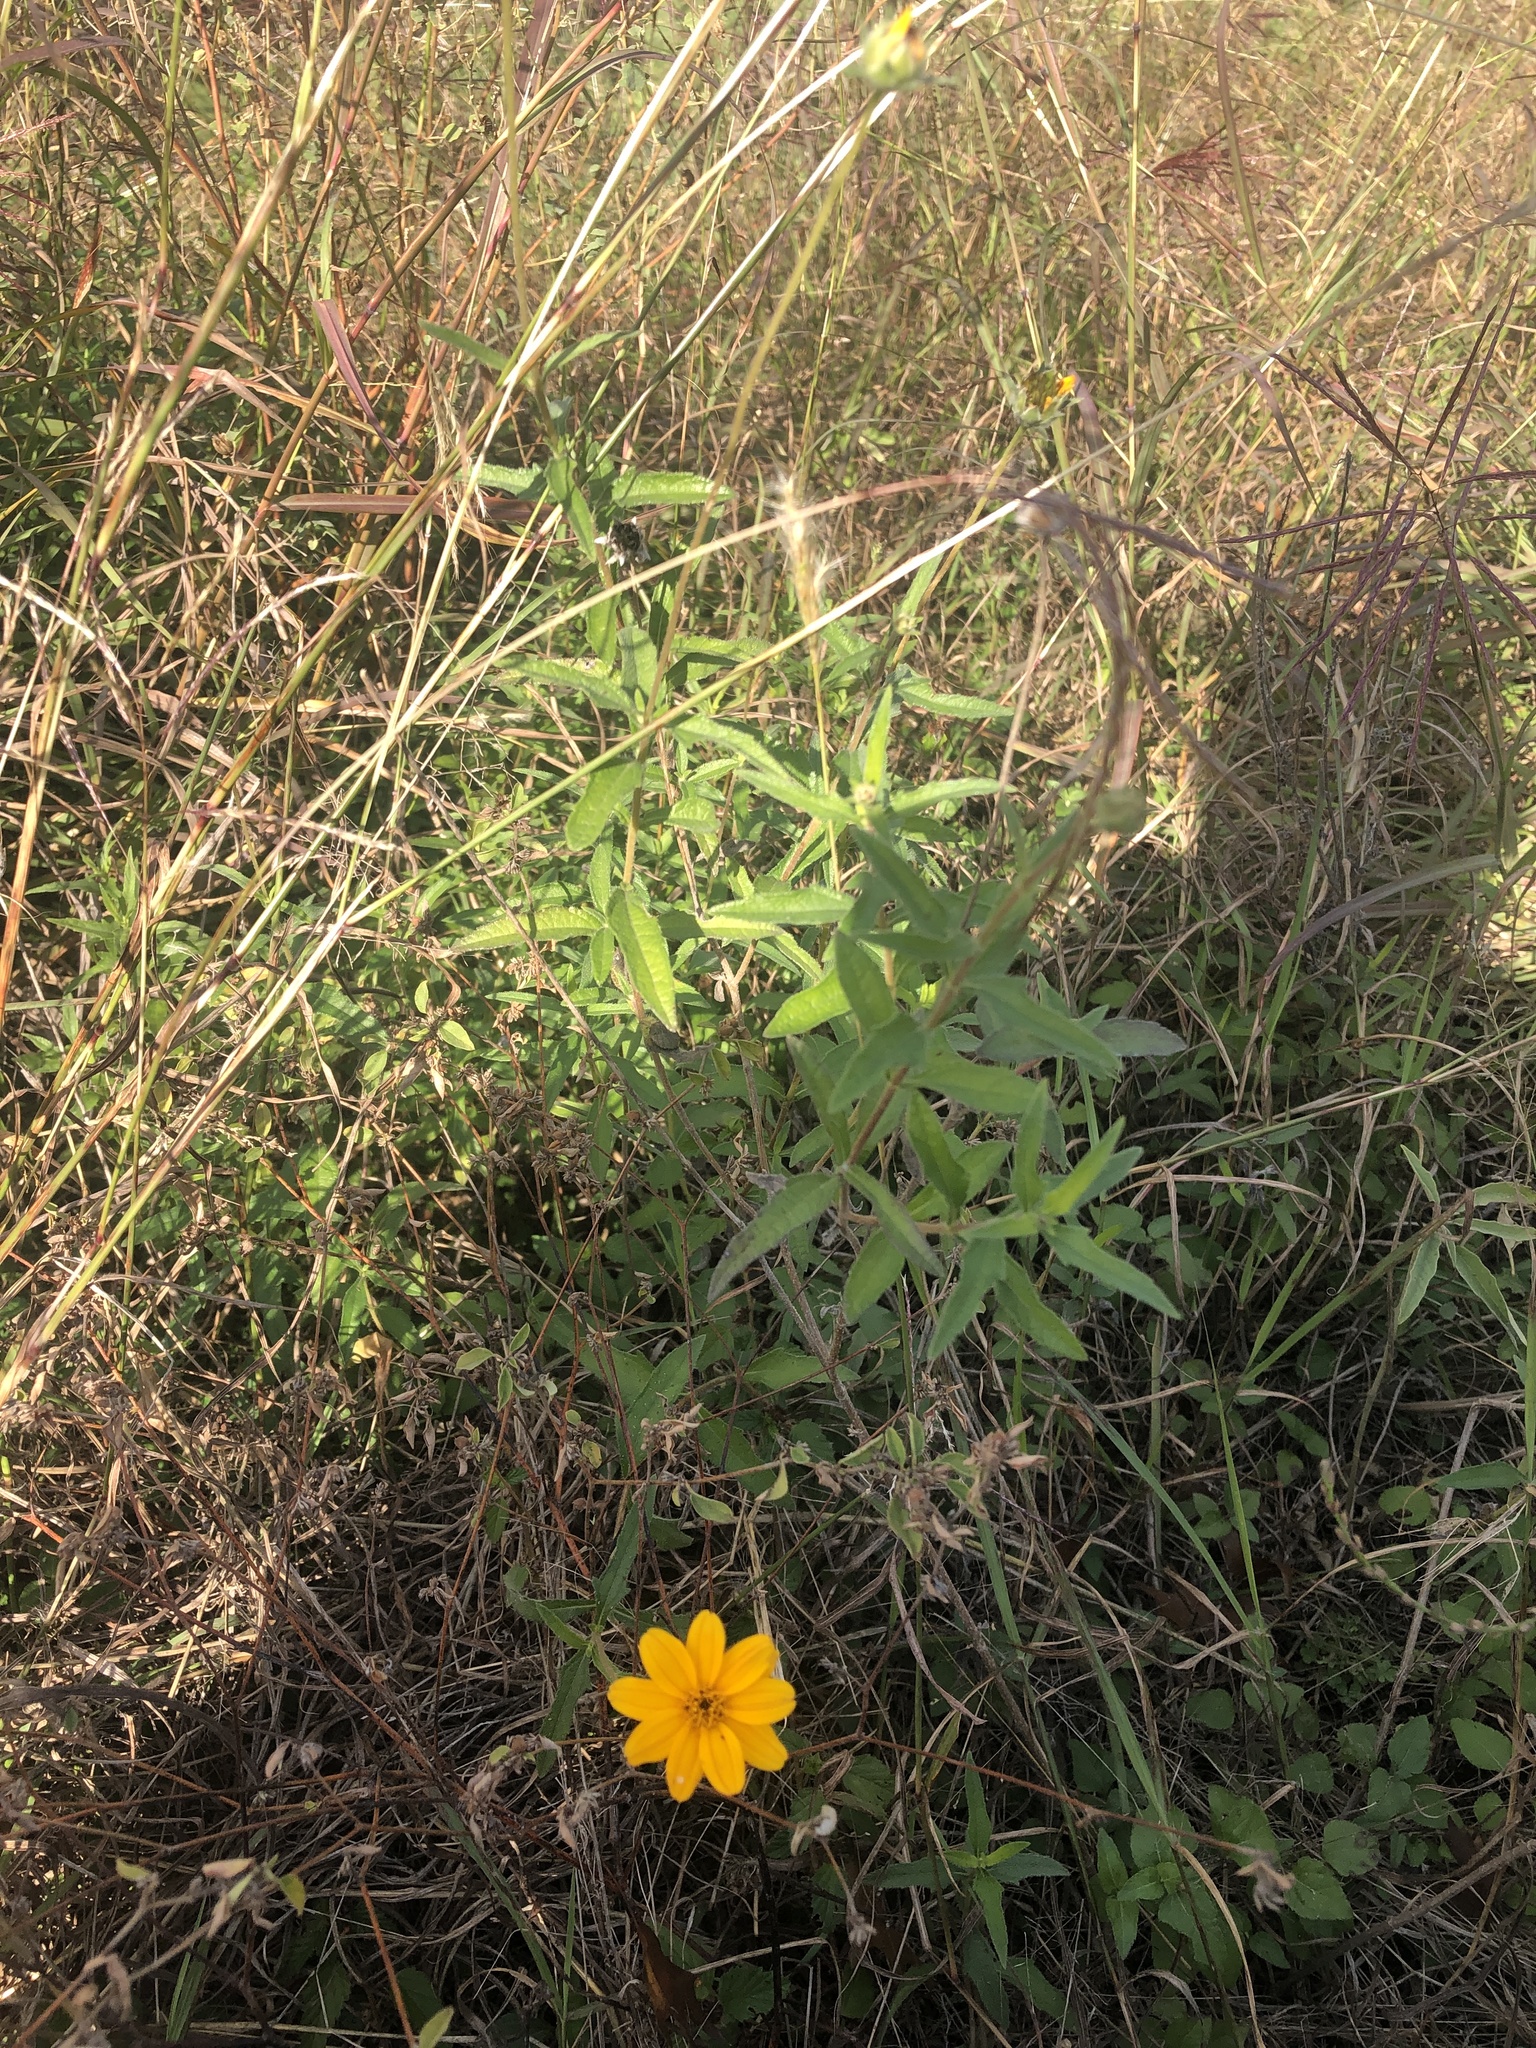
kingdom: Plantae
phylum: Tracheophyta
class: Magnoliopsida
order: Asterales
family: Asteraceae
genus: Wedelia
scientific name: Wedelia acapulcensis
